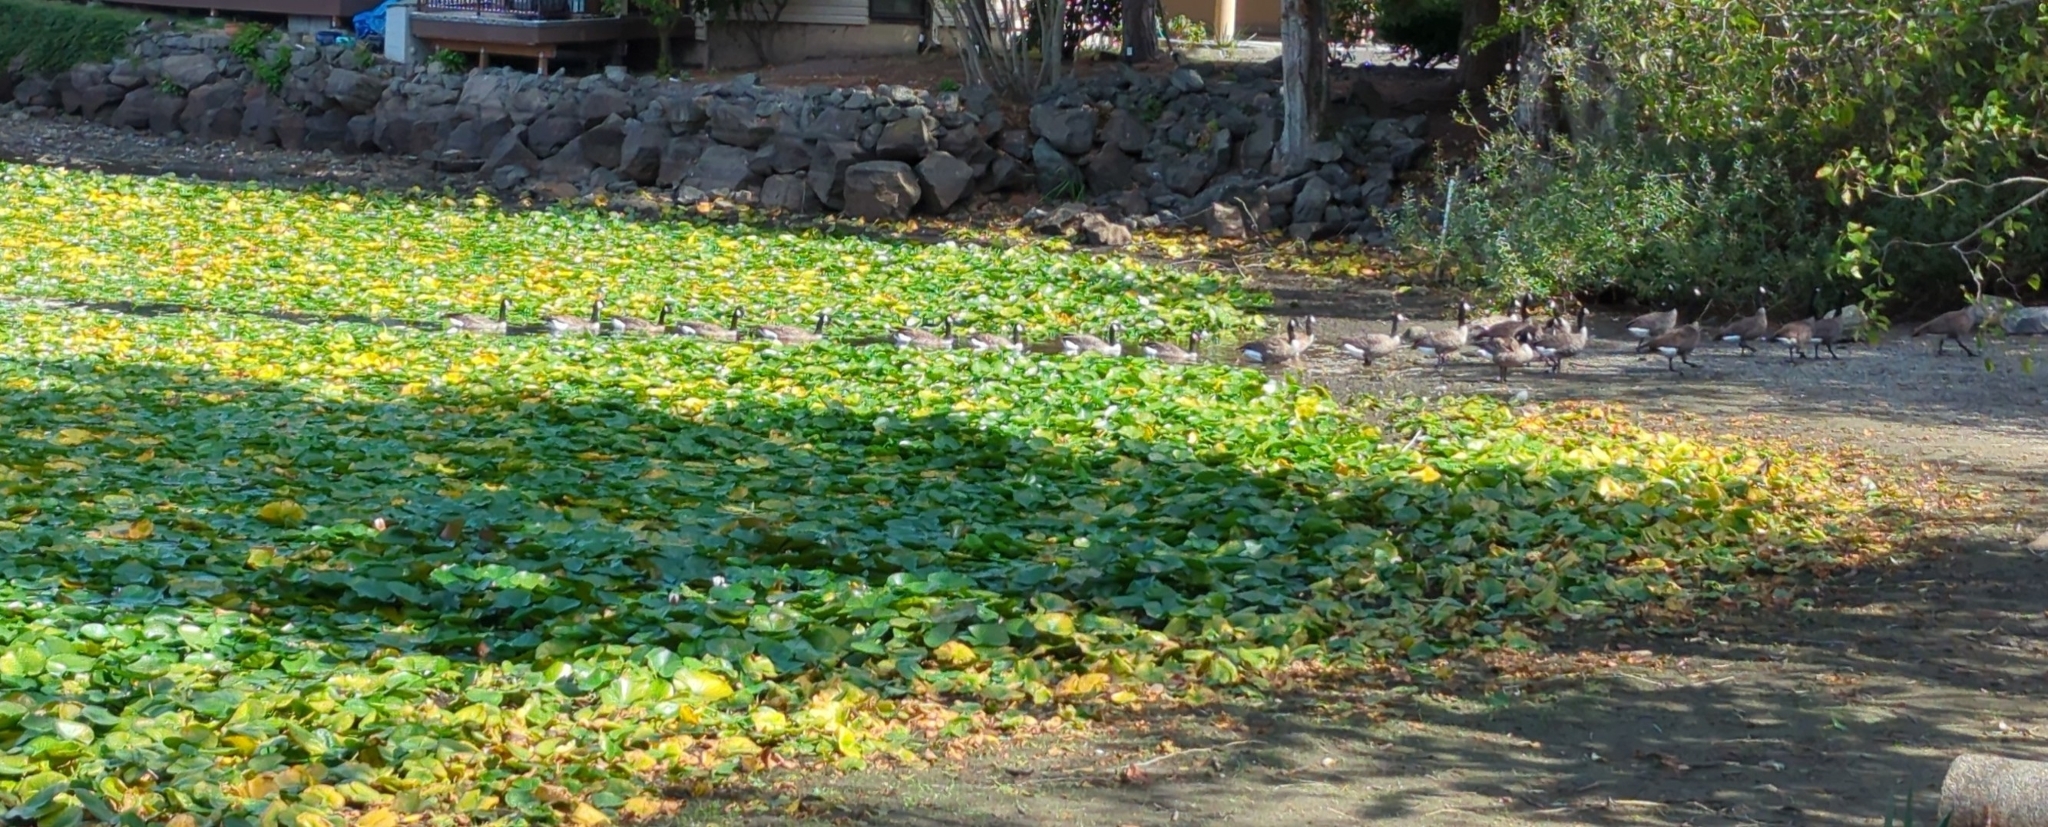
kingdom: Animalia
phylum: Chordata
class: Aves
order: Anseriformes
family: Anatidae
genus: Branta
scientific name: Branta canadensis
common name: Canada goose
